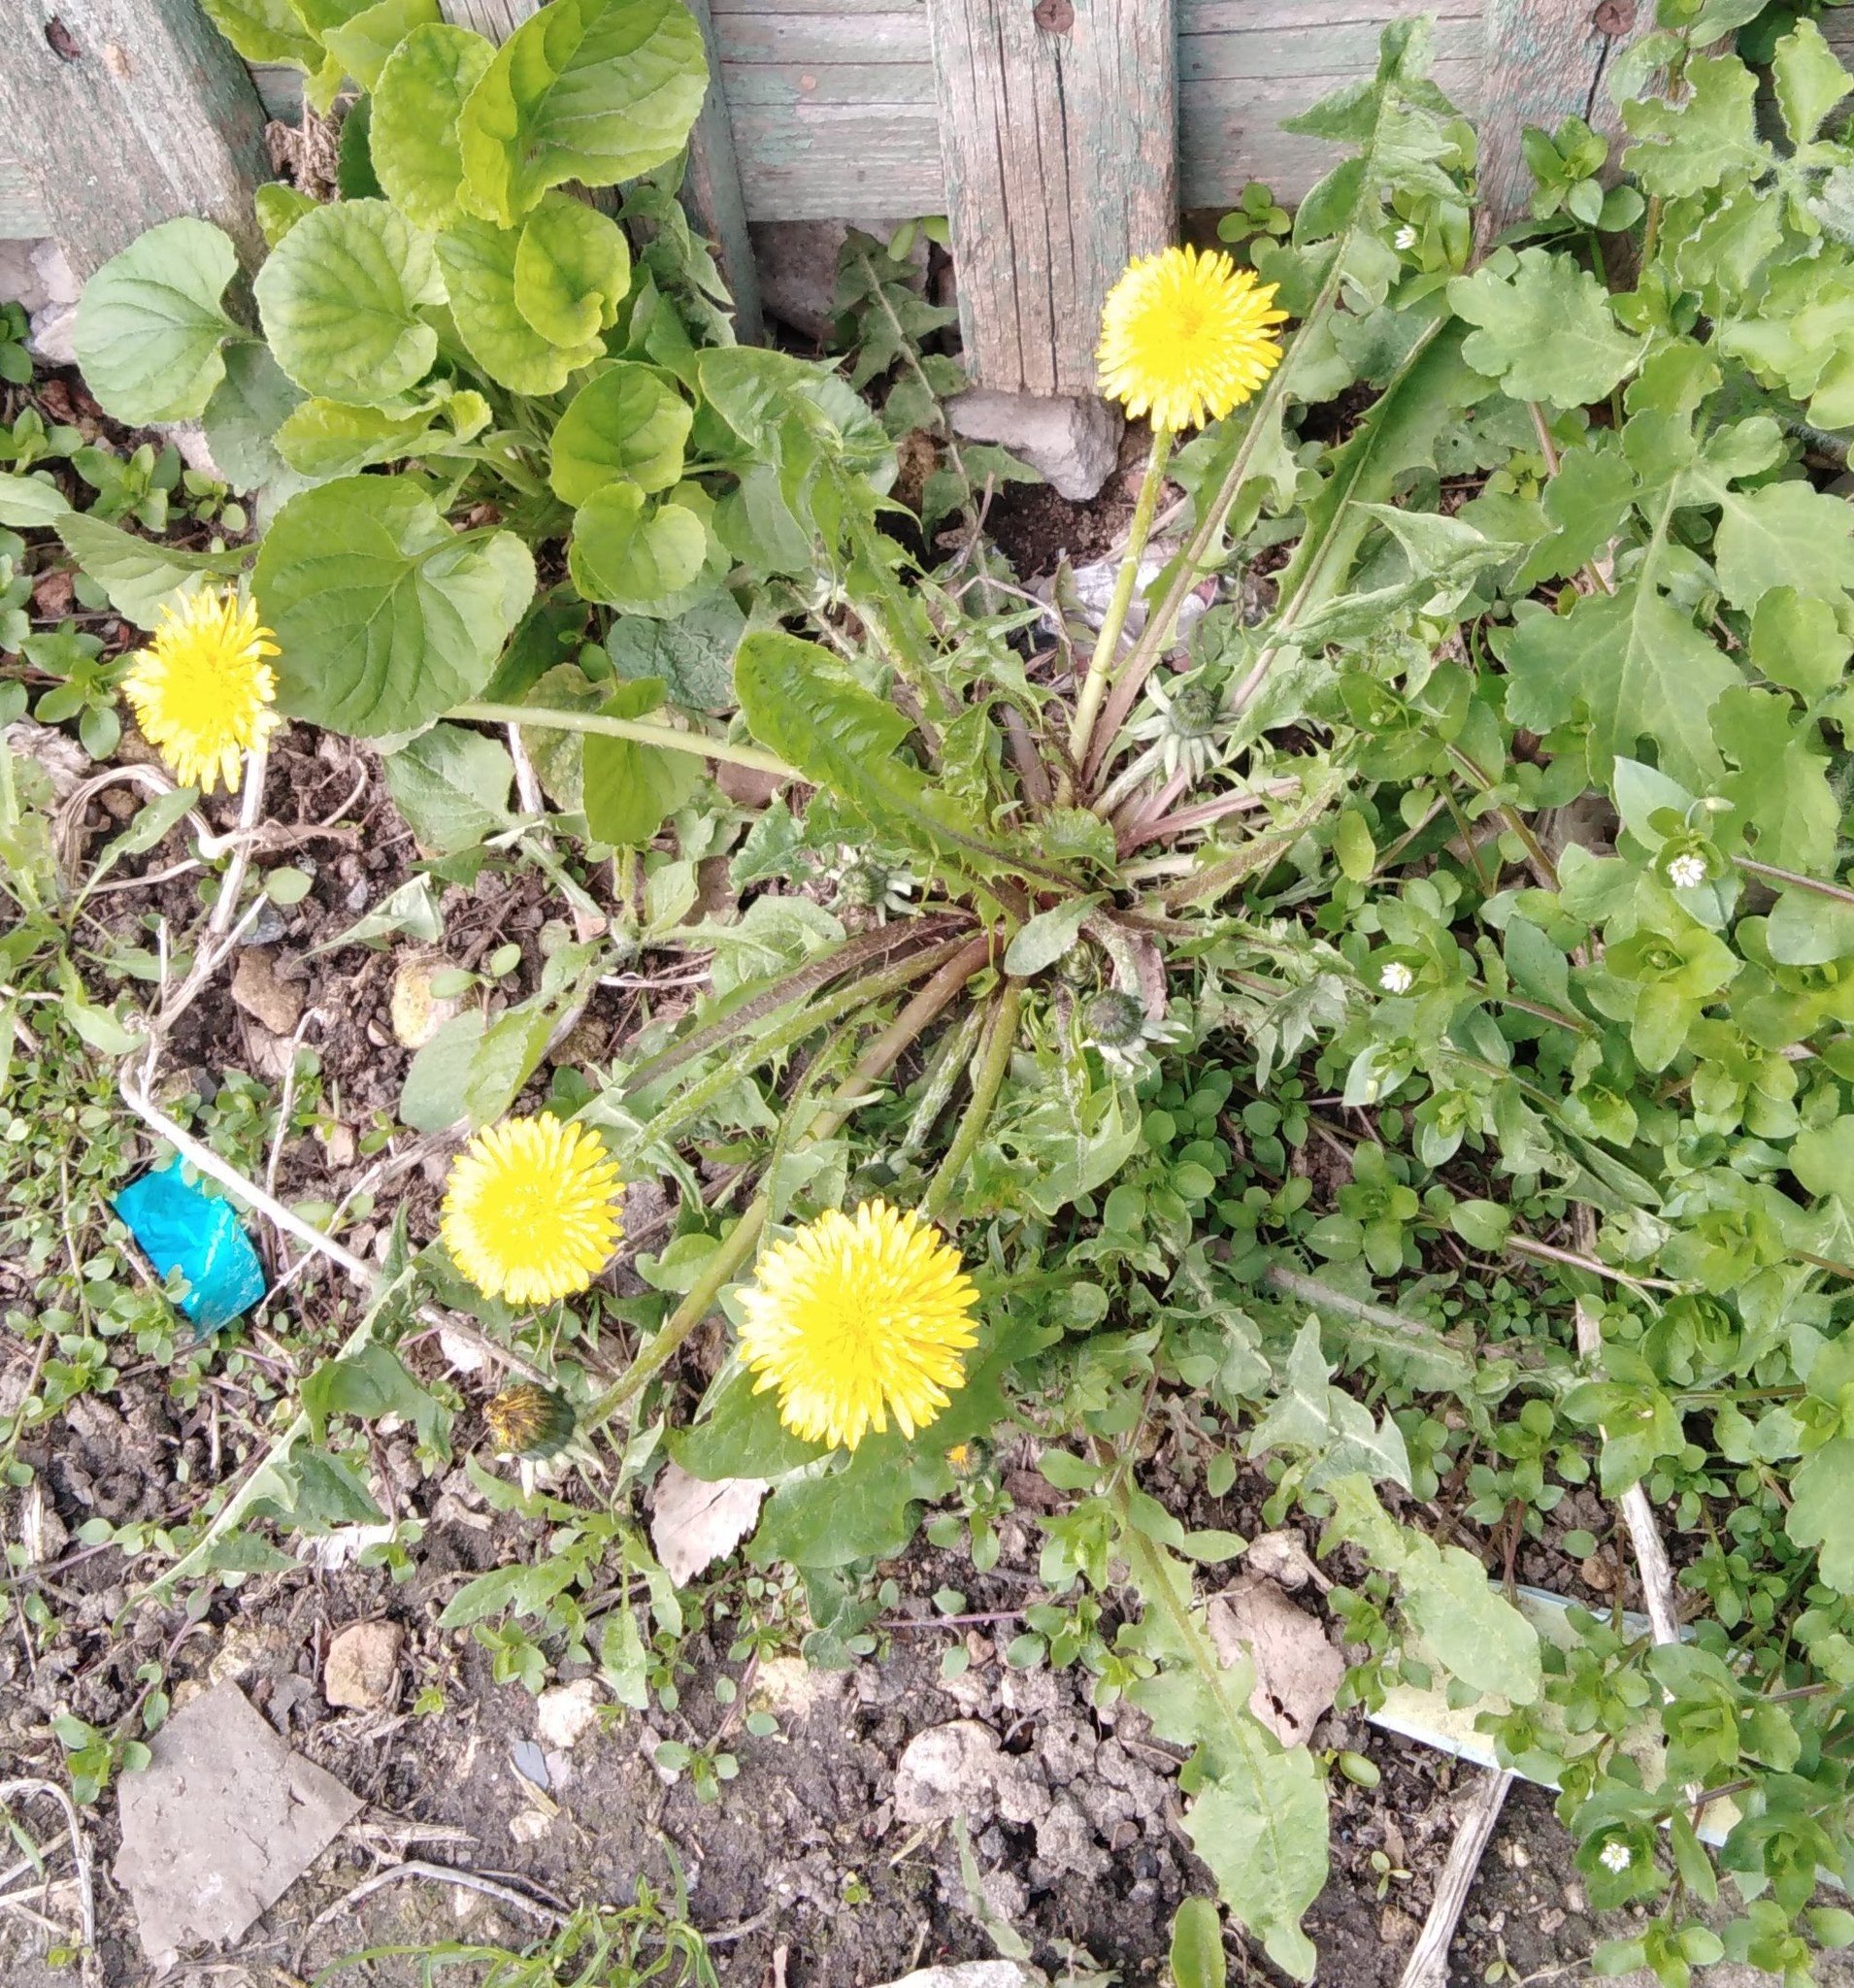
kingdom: Plantae
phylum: Tracheophyta
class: Magnoliopsida
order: Asterales
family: Asteraceae
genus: Taraxacum
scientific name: Taraxacum officinale
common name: Common dandelion
